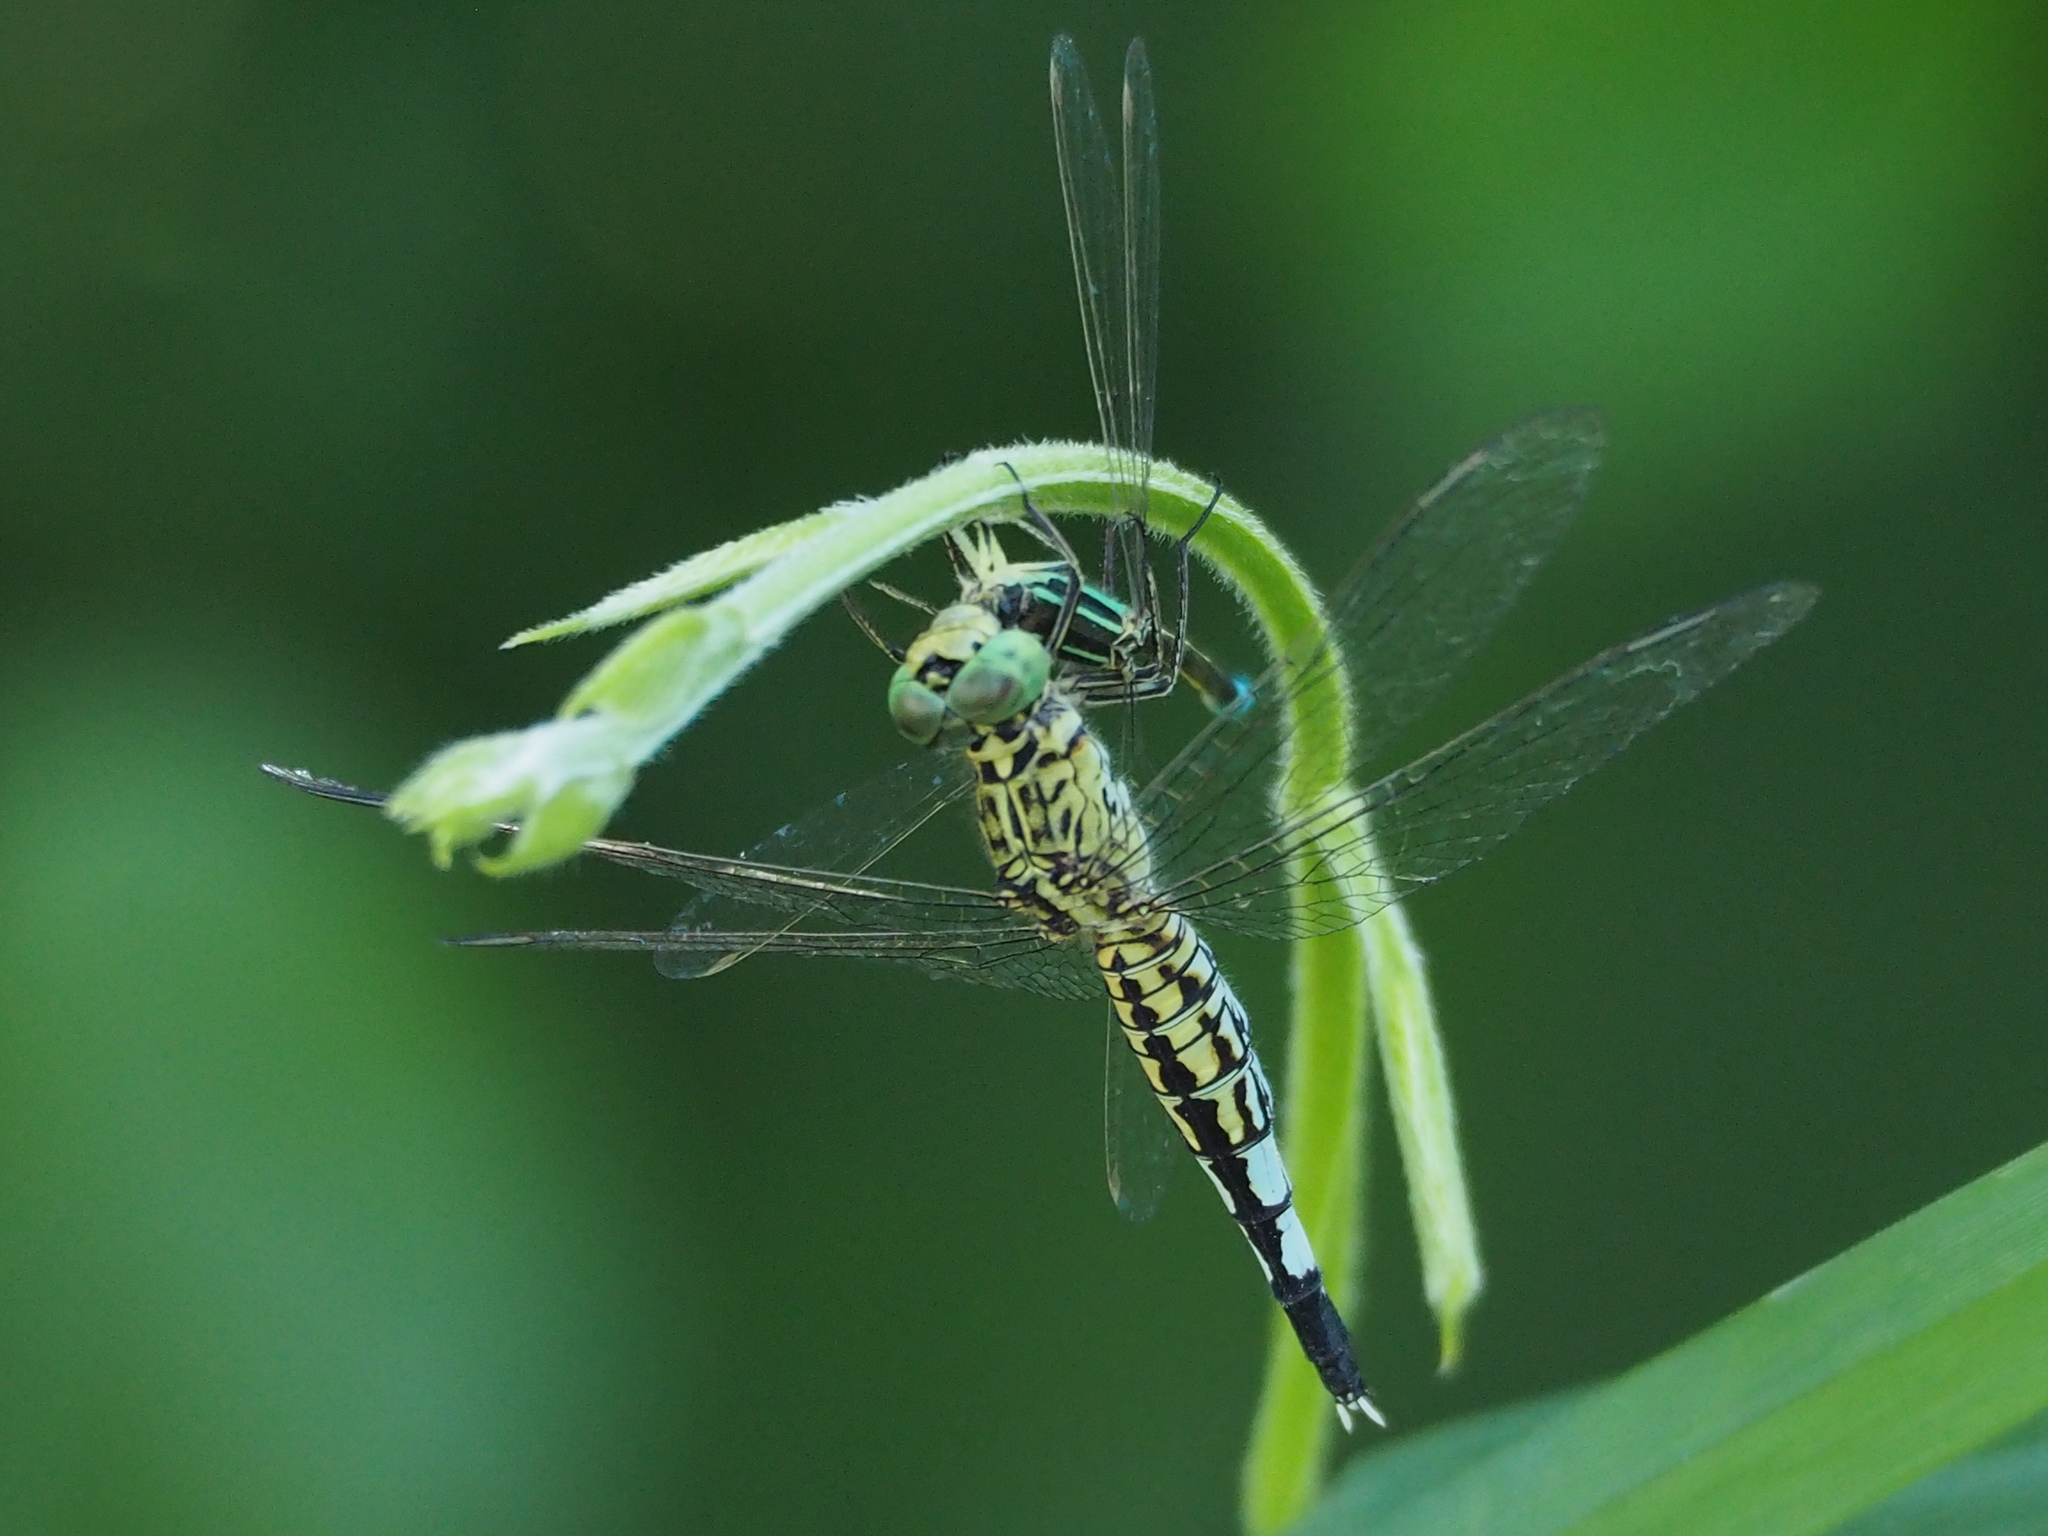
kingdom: Animalia
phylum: Arthropoda
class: Insecta
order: Odonata
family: Libellulidae
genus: Acisoma
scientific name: Acisoma panorpoides
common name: Asian pintail
